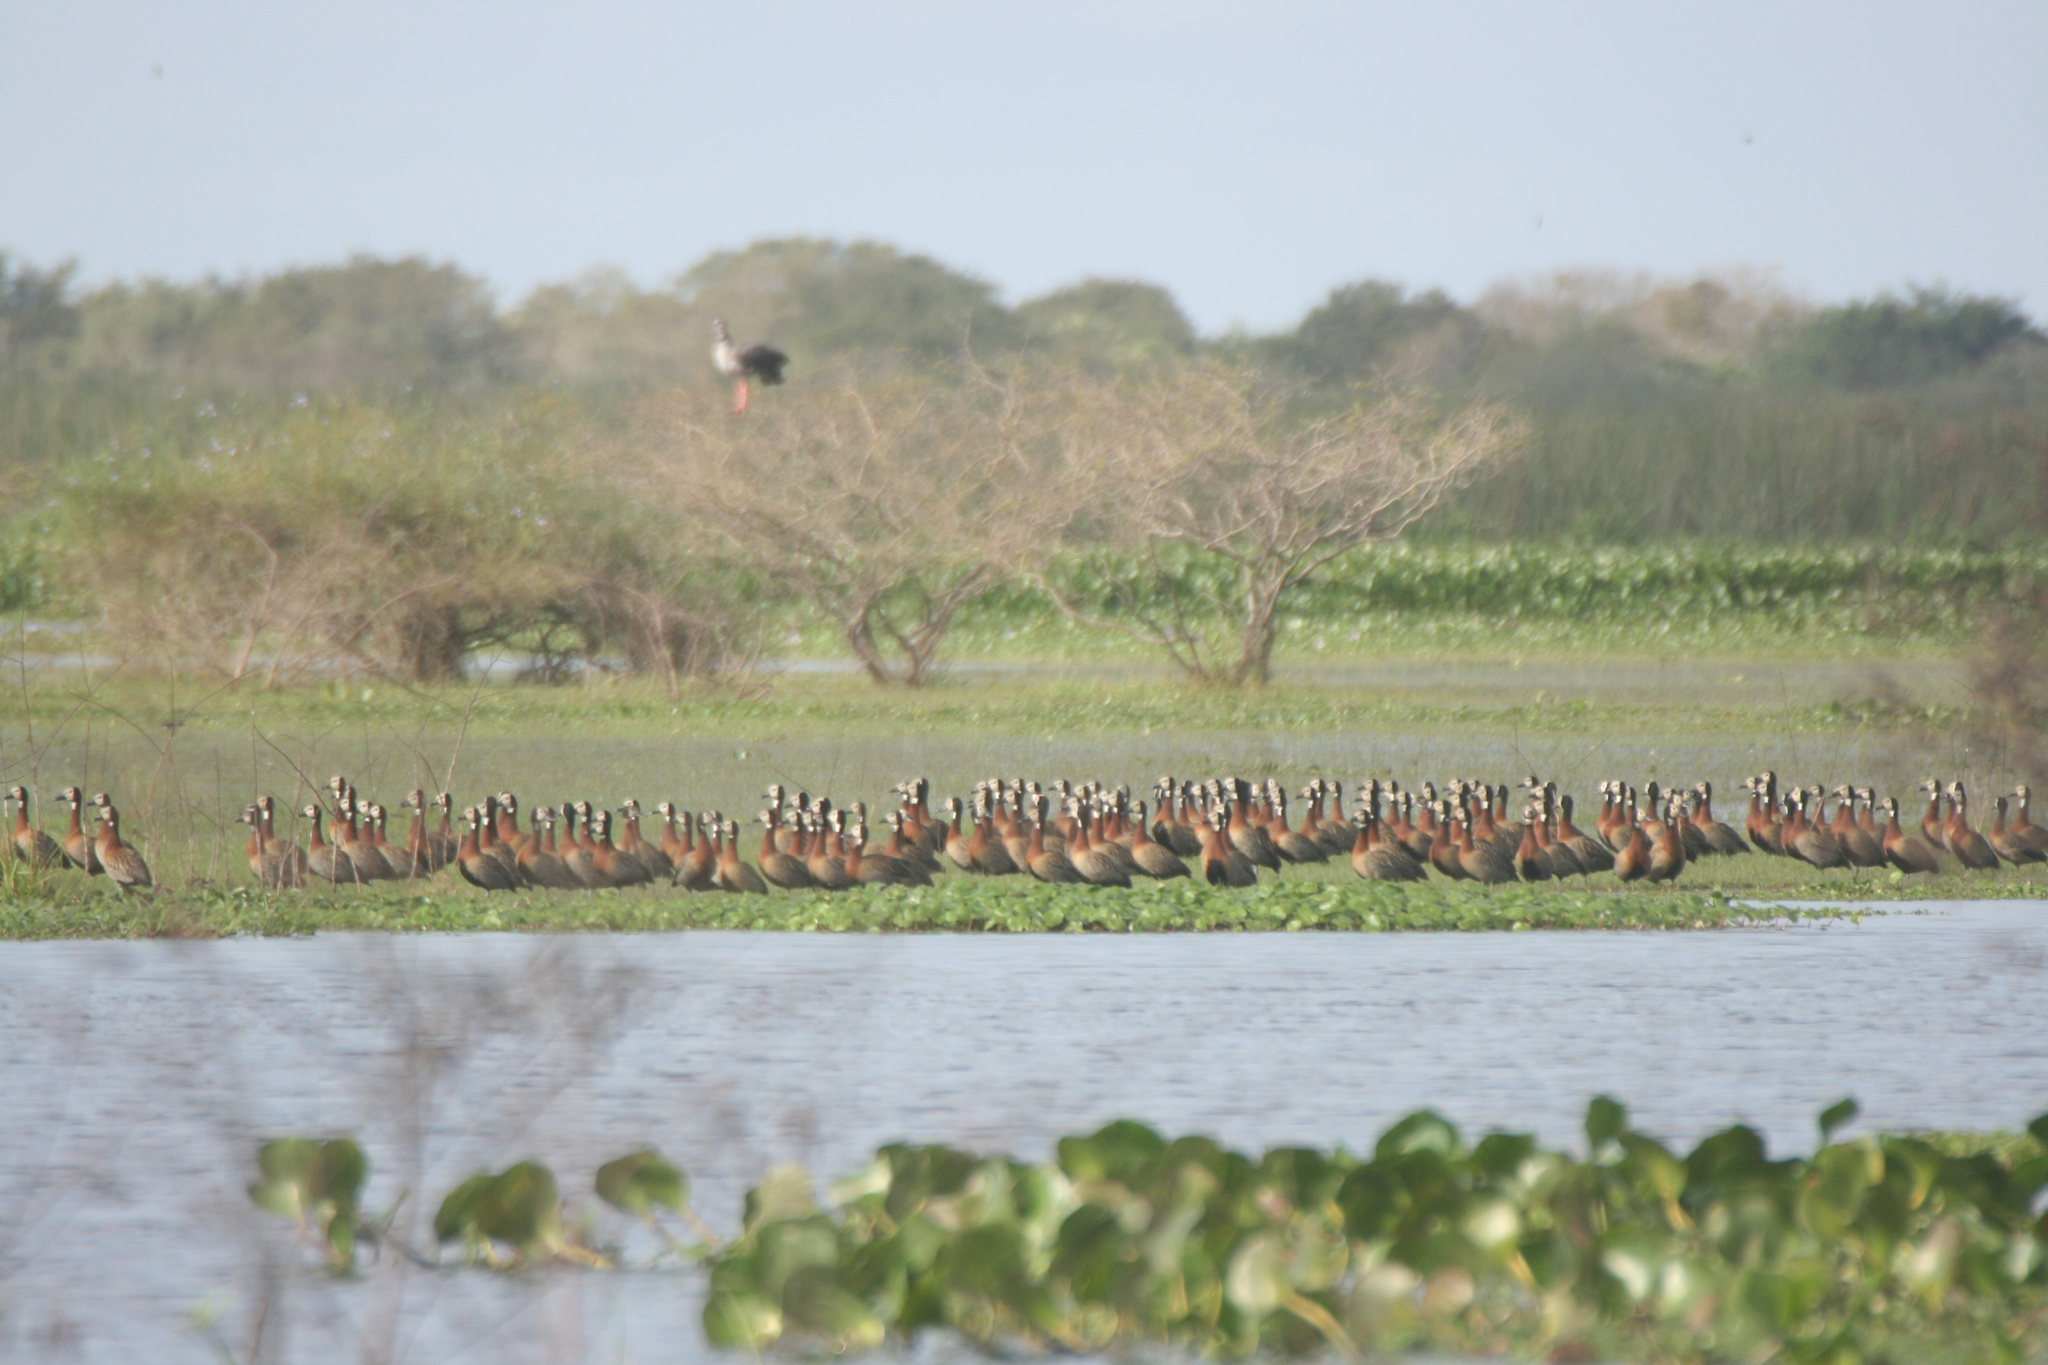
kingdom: Animalia
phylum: Chordata
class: Aves
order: Anseriformes
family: Anatidae
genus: Dendrocygna
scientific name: Dendrocygna viduata
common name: White-faced whistling duck
